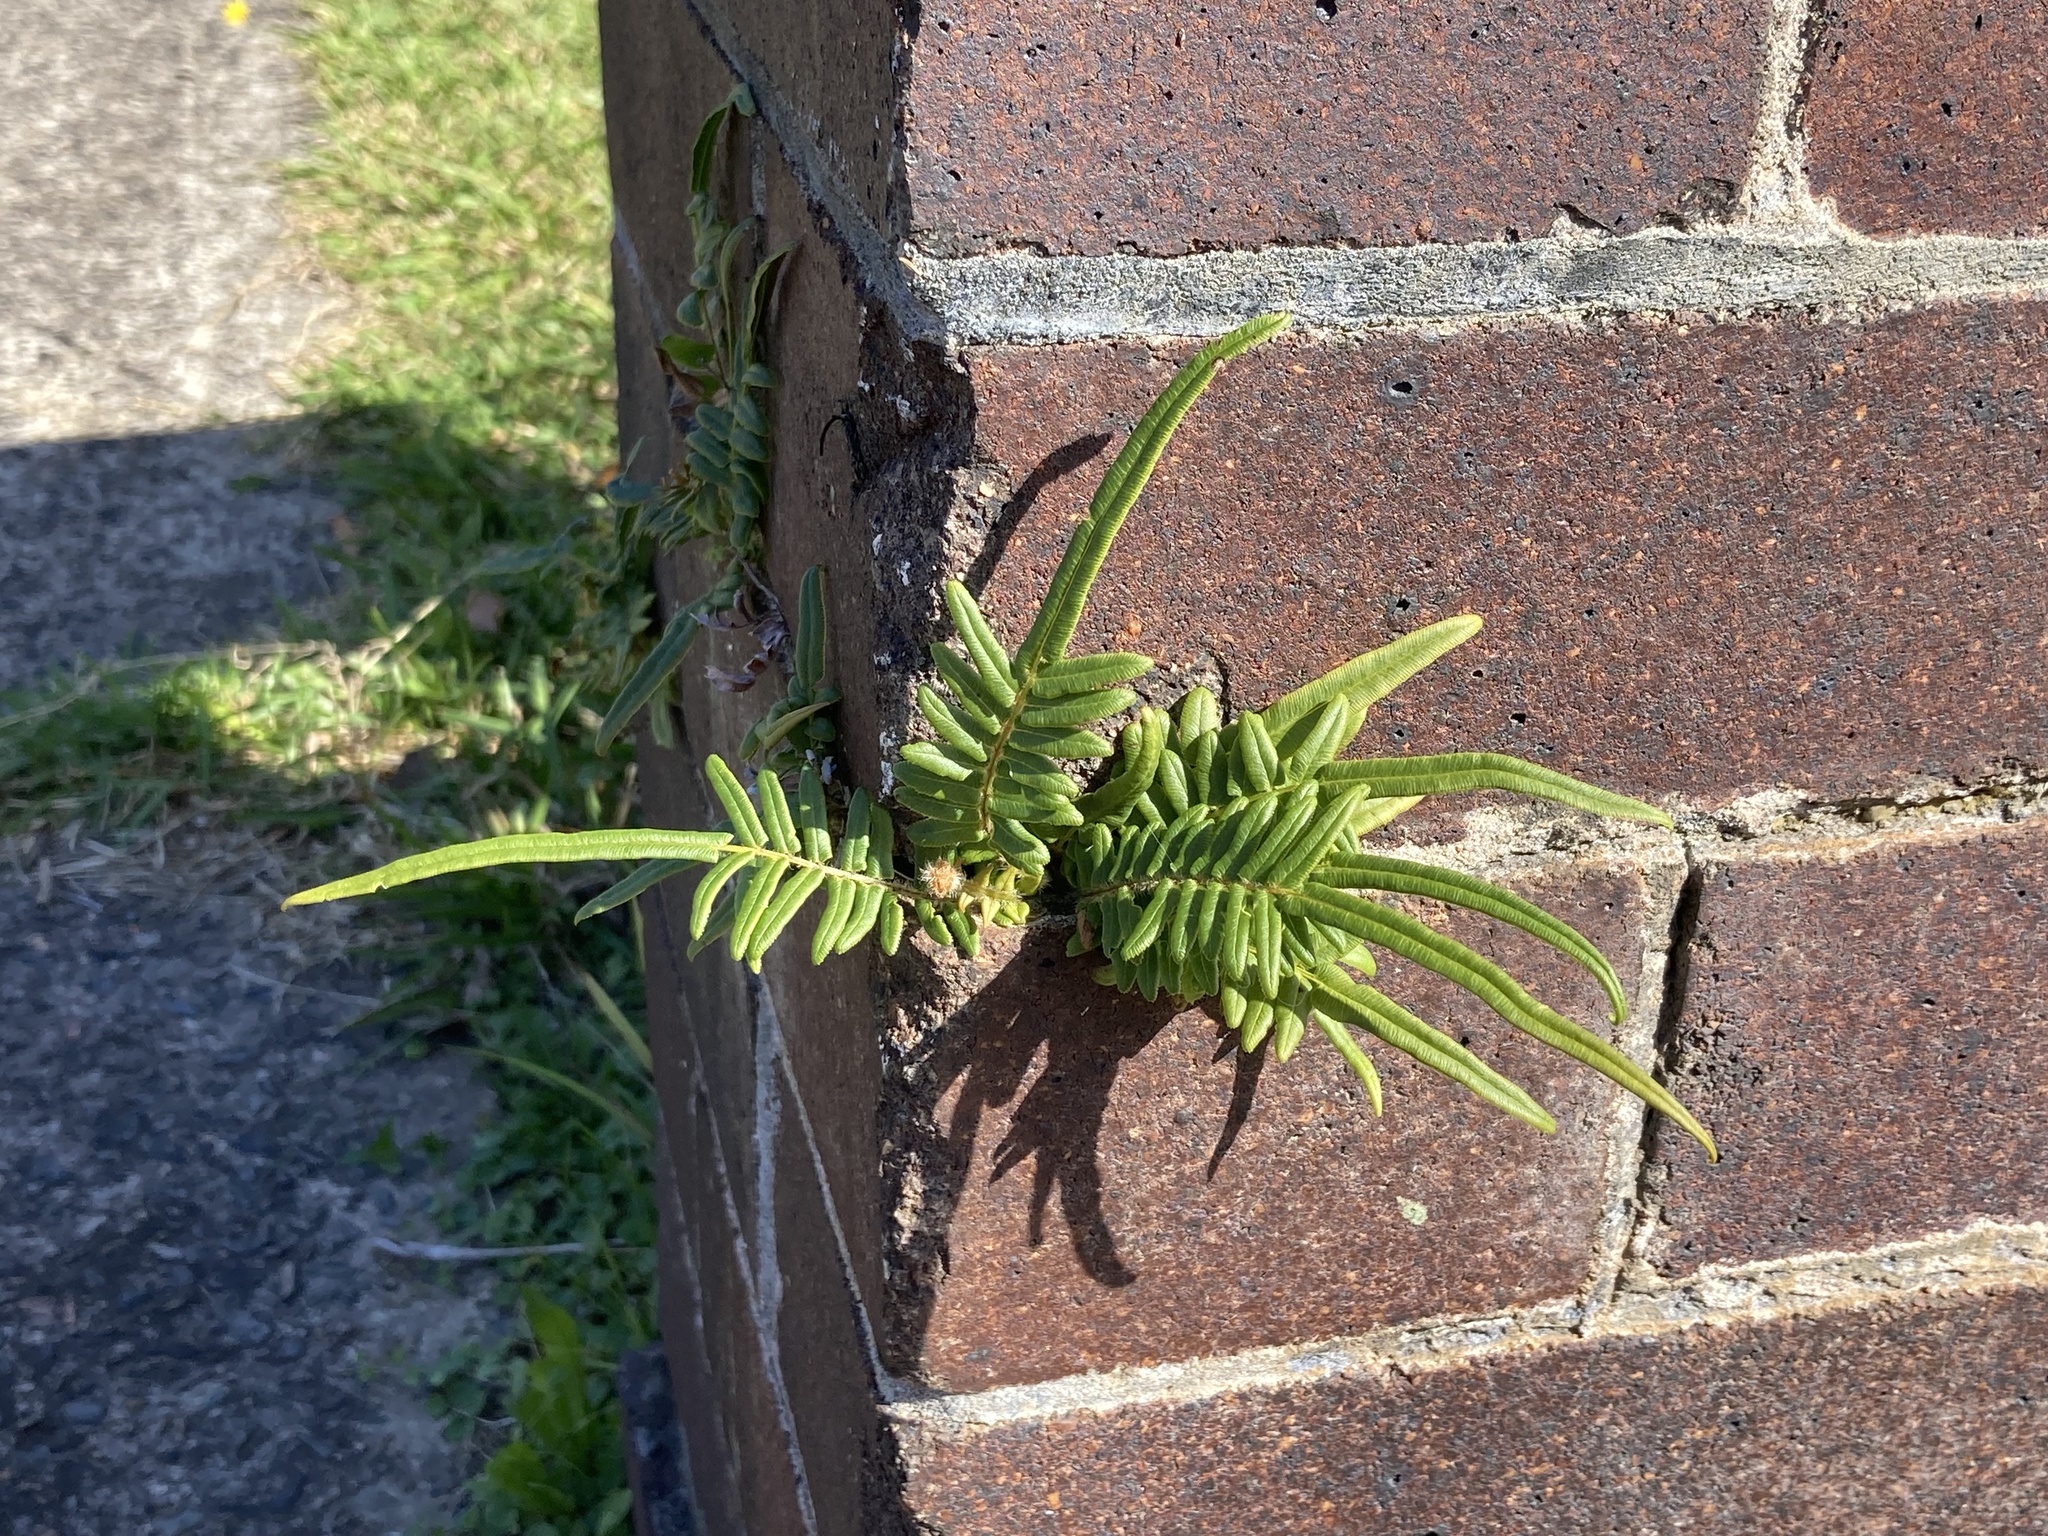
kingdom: Plantae
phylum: Tracheophyta
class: Polypodiopsida
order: Polypodiales
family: Pteridaceae
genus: Pteris
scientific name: Pteris vittata
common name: Ladder brake
